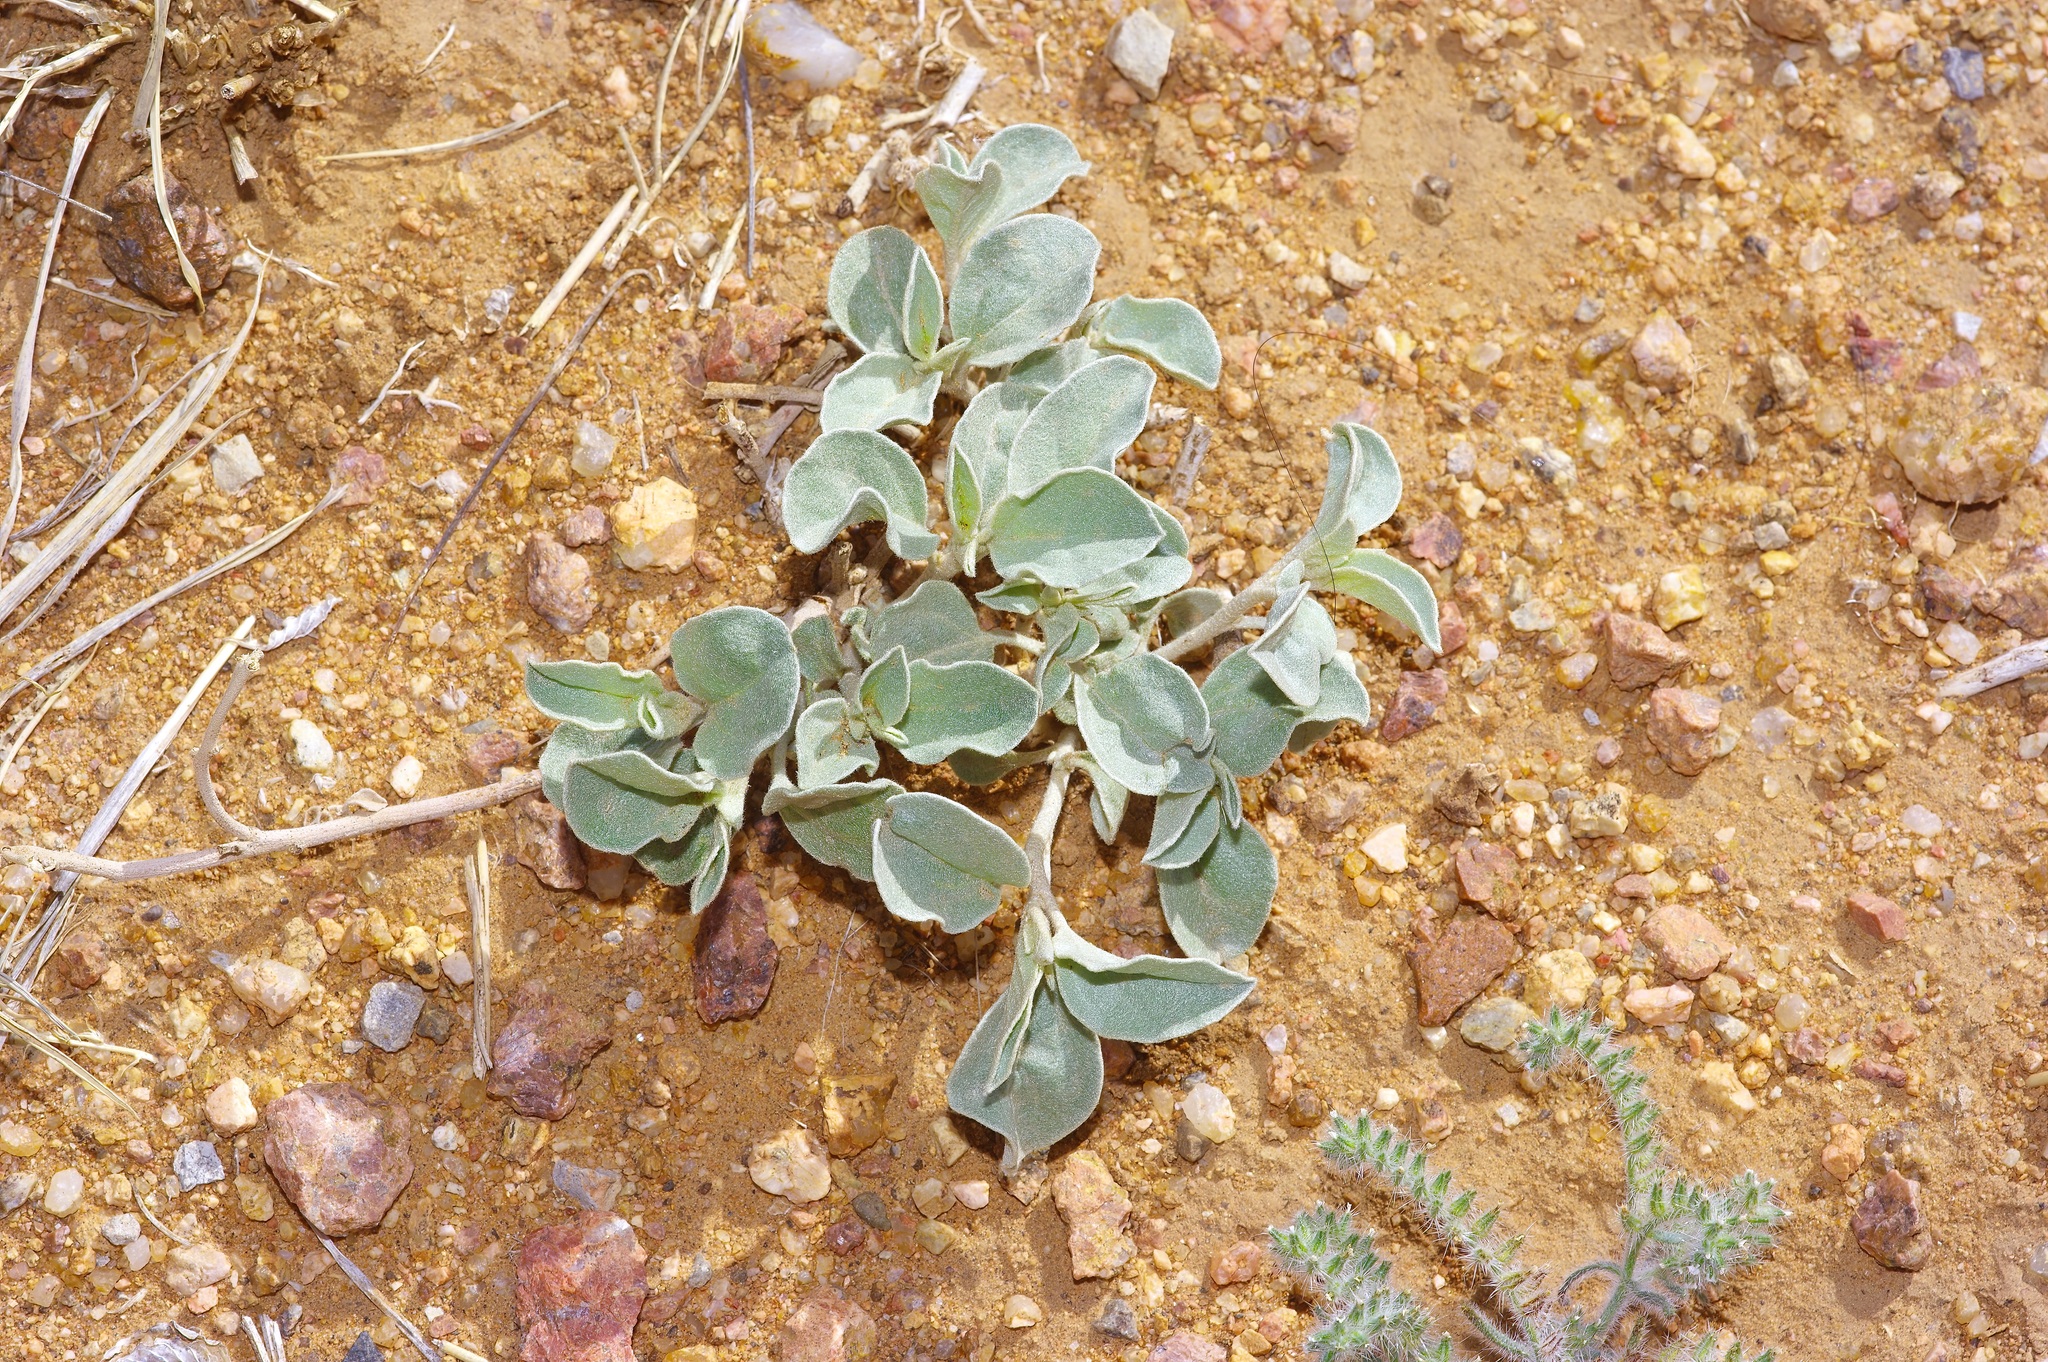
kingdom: Plantae
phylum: Tracheophyta
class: Magnoliopsida
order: Malpighiales
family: Euphorbiaceae
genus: Croton
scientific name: Croton pottsii
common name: Leatherweed
